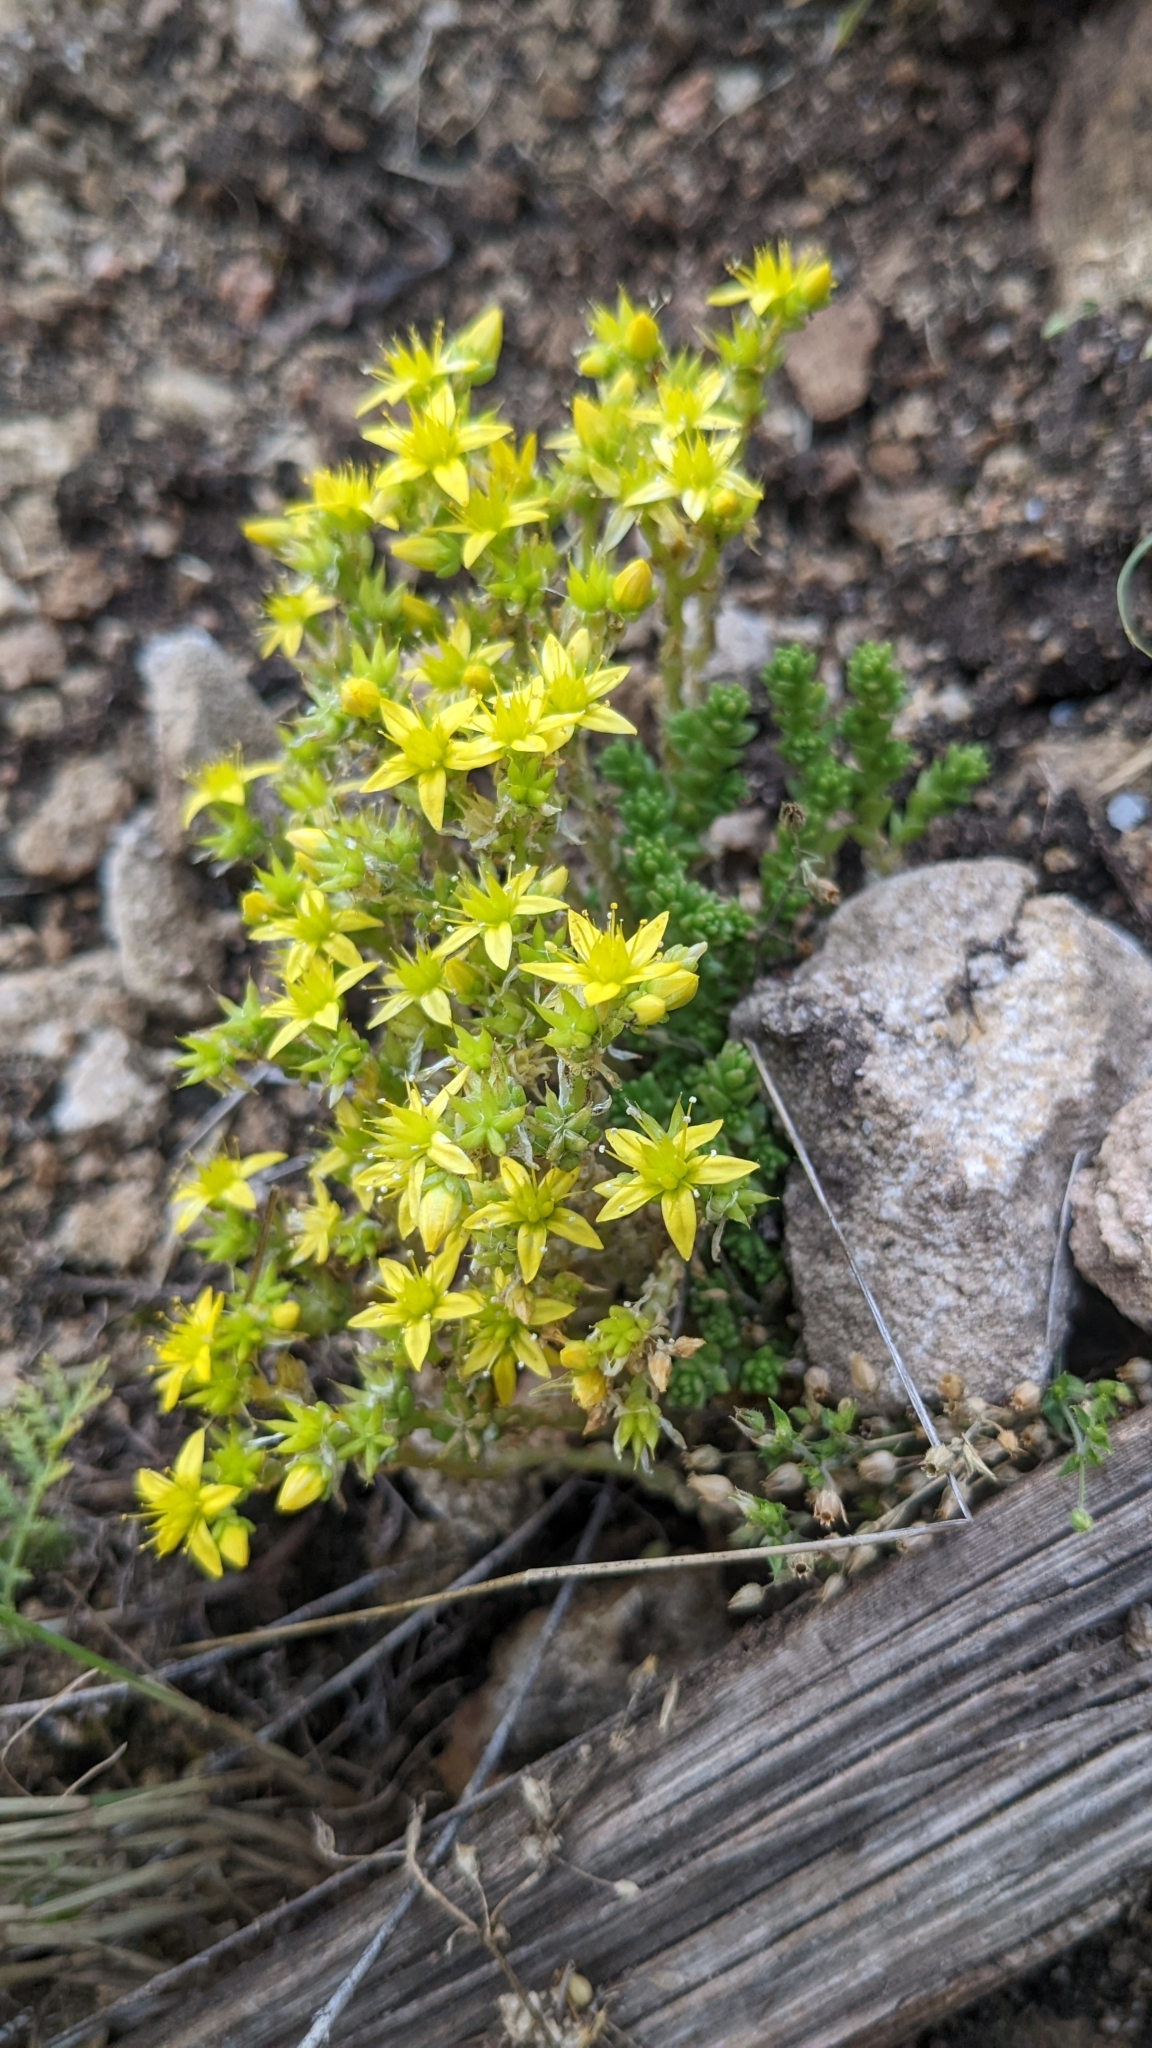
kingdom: Plantae
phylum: Tracheophyta
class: Magnoliopsida
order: Saxifragales
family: Crassulaceae
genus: Sedum
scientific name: Sedum acre
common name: Biting stonecrop
